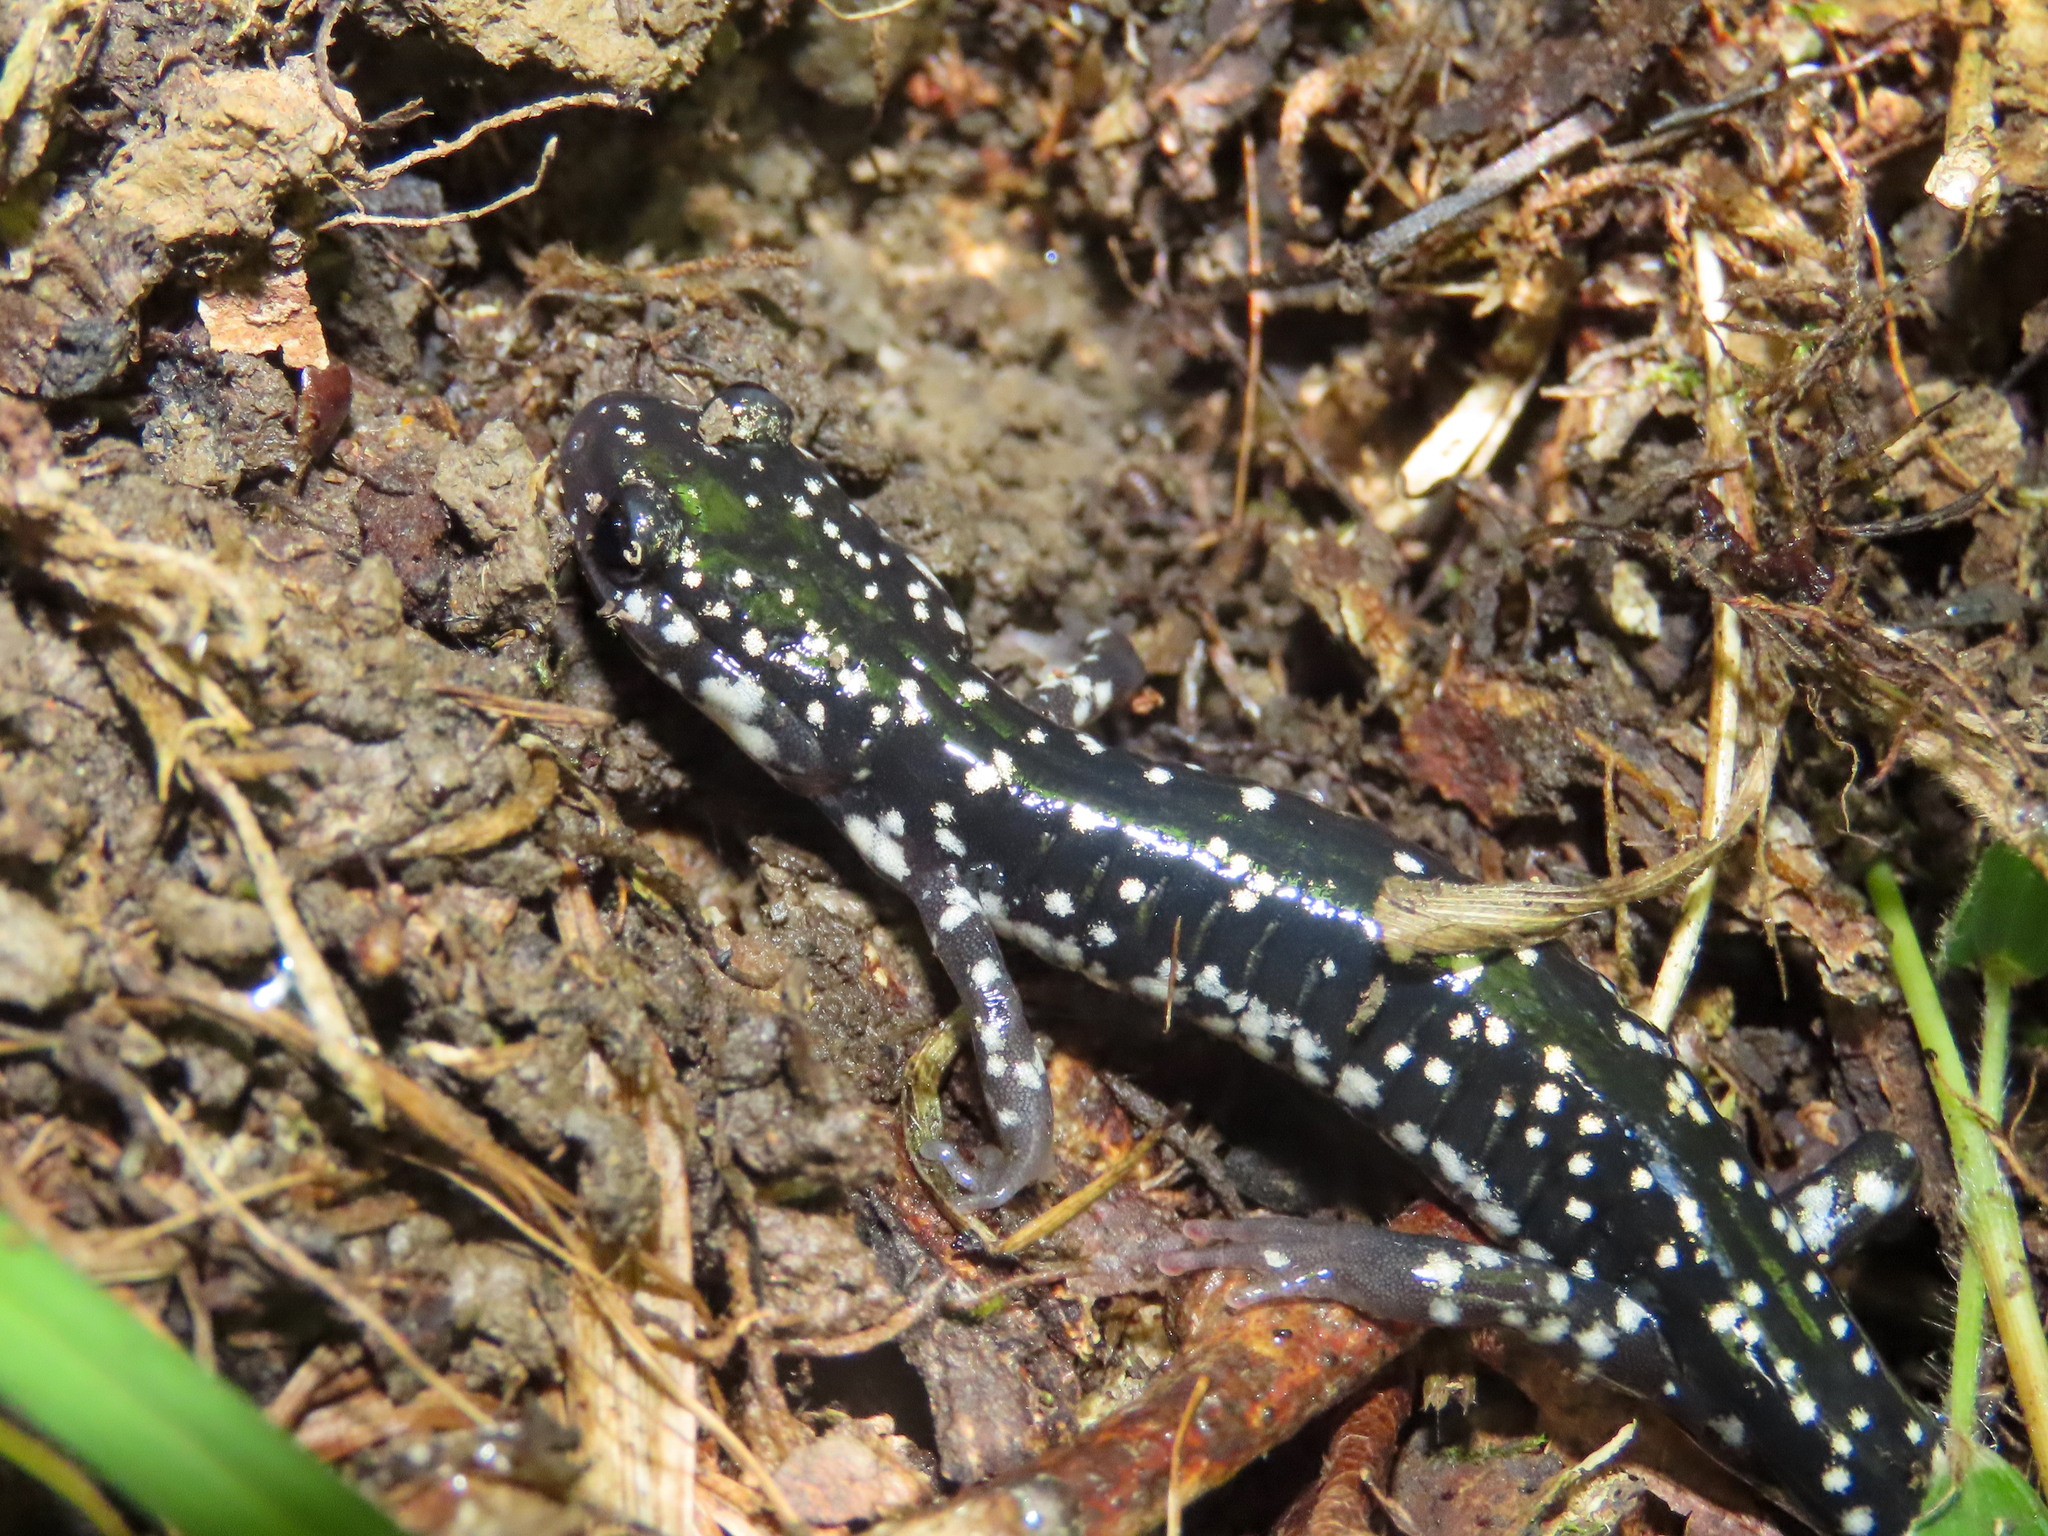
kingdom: Animalia
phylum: Chordata
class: Amphibia
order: Caudata
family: Plethodontidae
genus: Plethodon
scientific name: Plethodon glutinosus
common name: Northern slimy salamander
